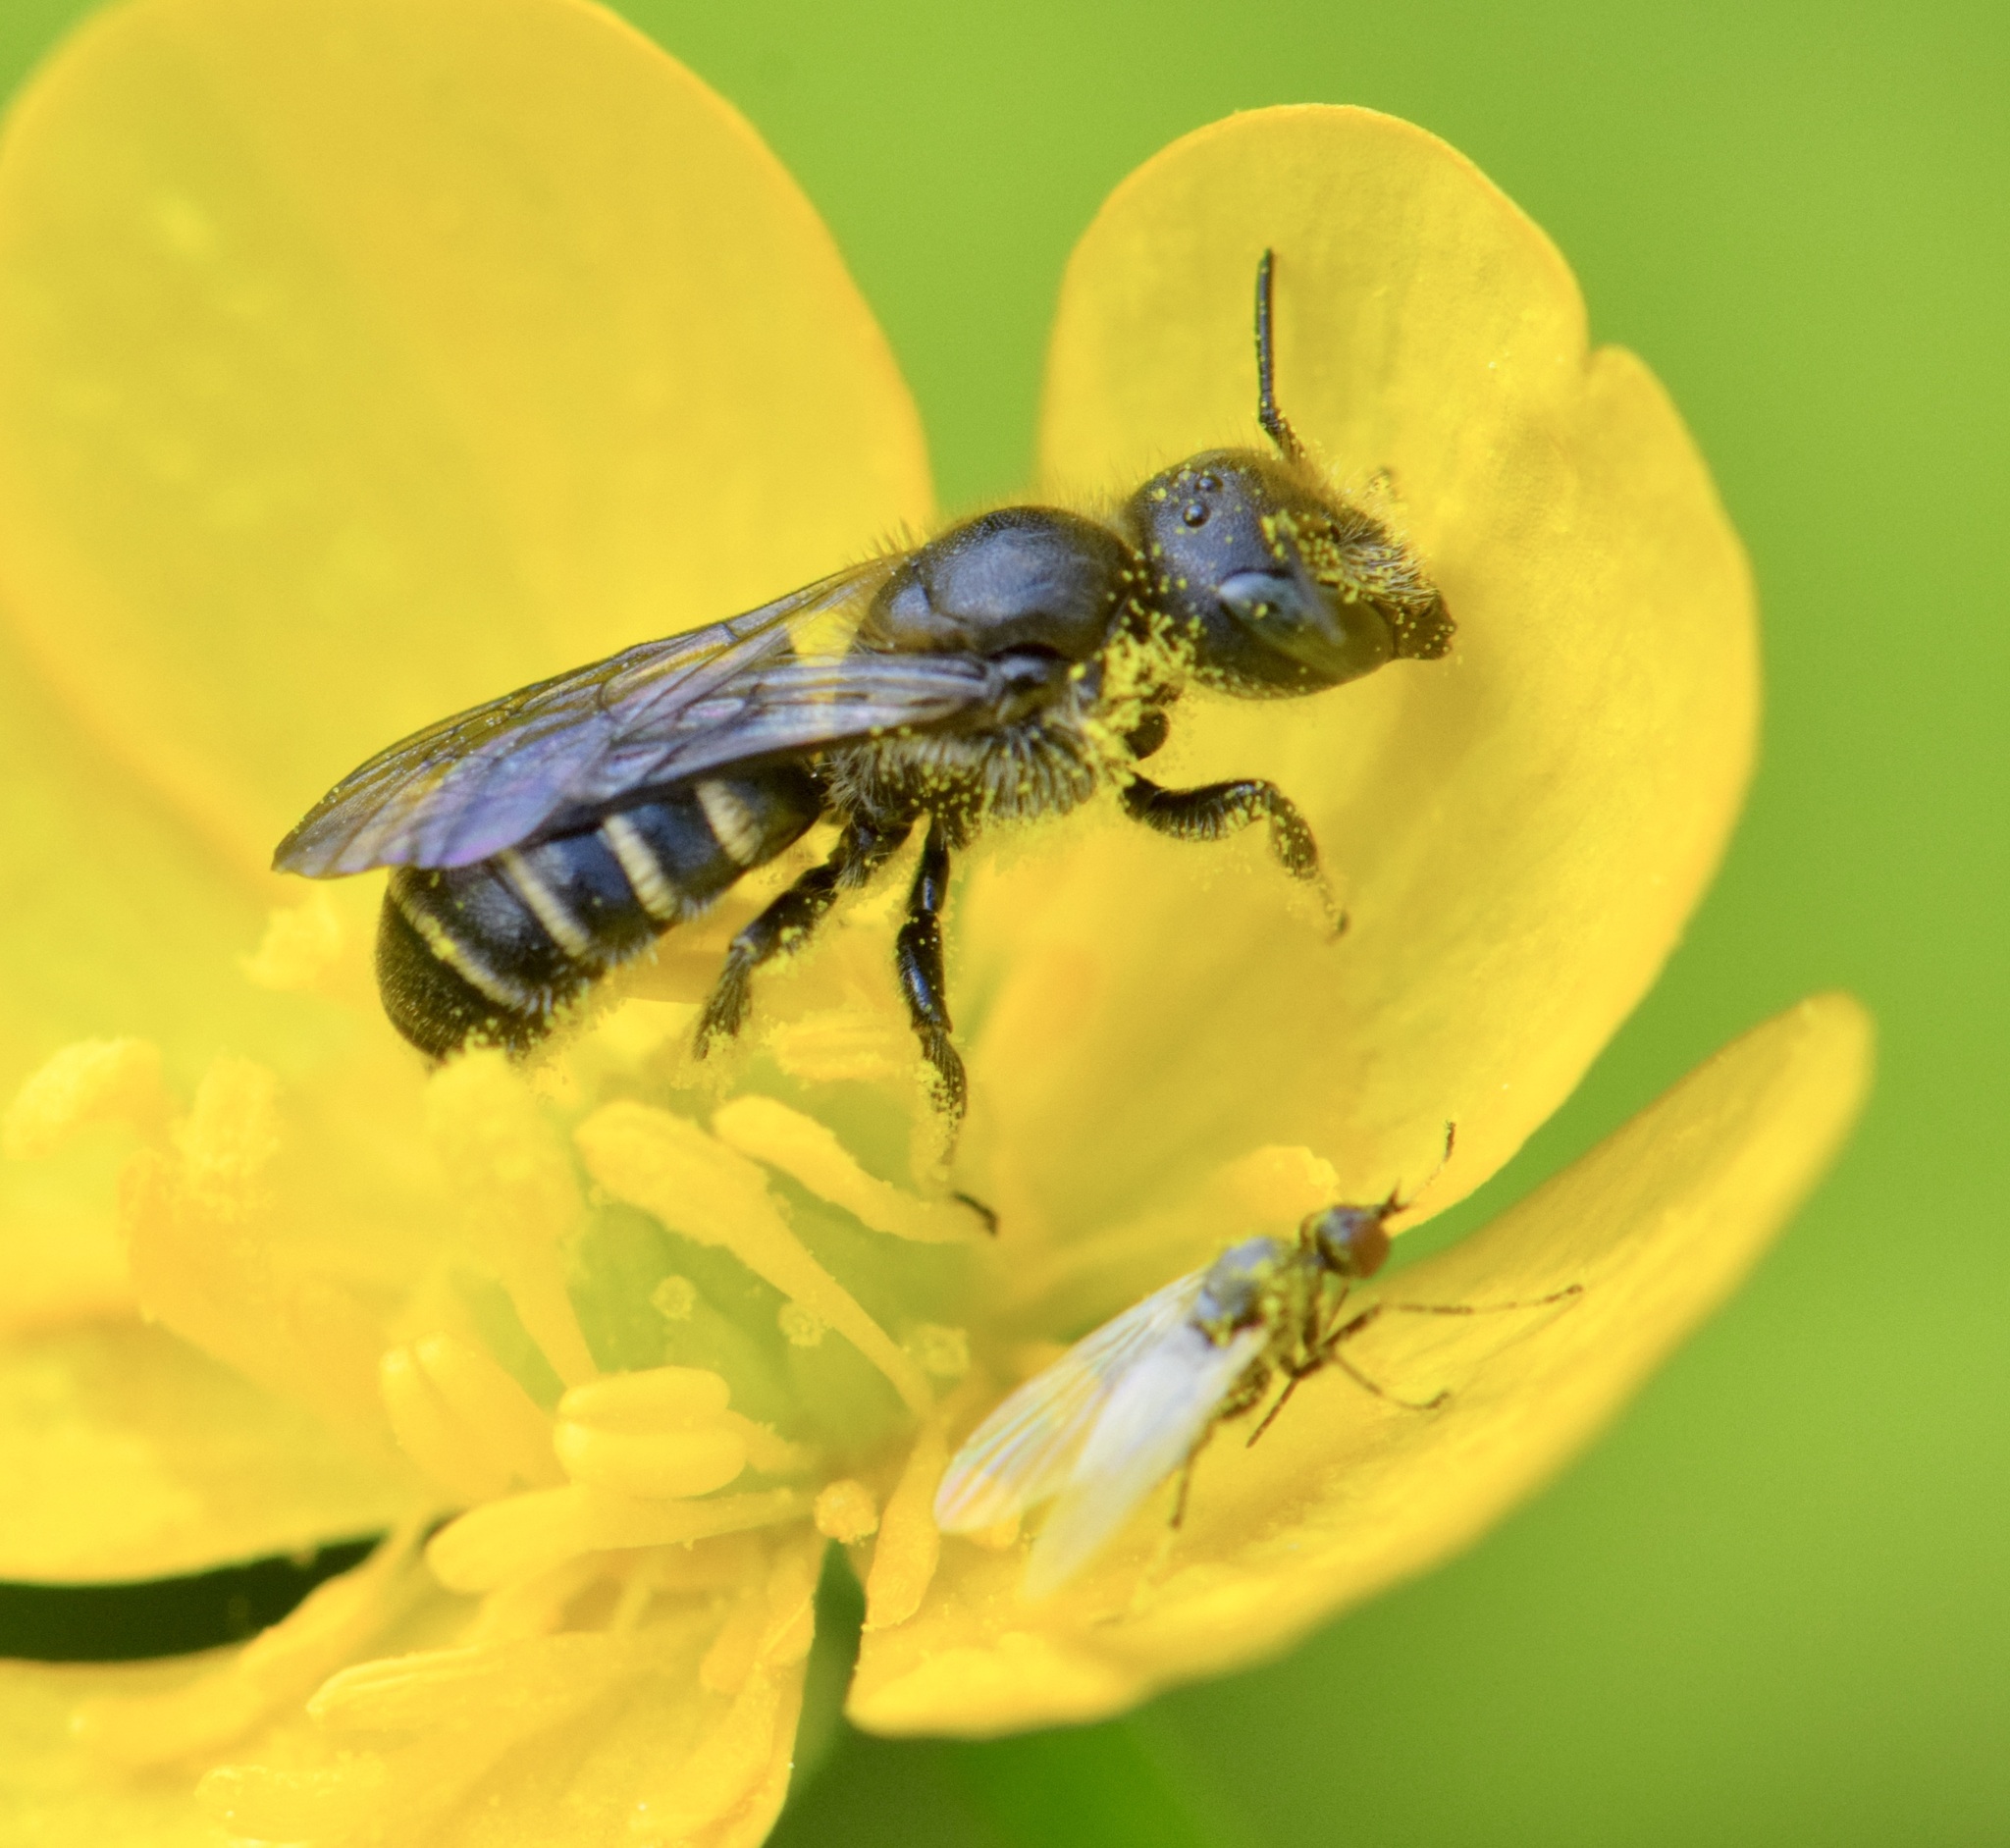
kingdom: Animalia
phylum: Arthropoda
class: Insecta
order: Hymenoptera
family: Megachilidae
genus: Chelostoma
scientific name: Chelostoma rapunculi
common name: Rampion scissor bee
